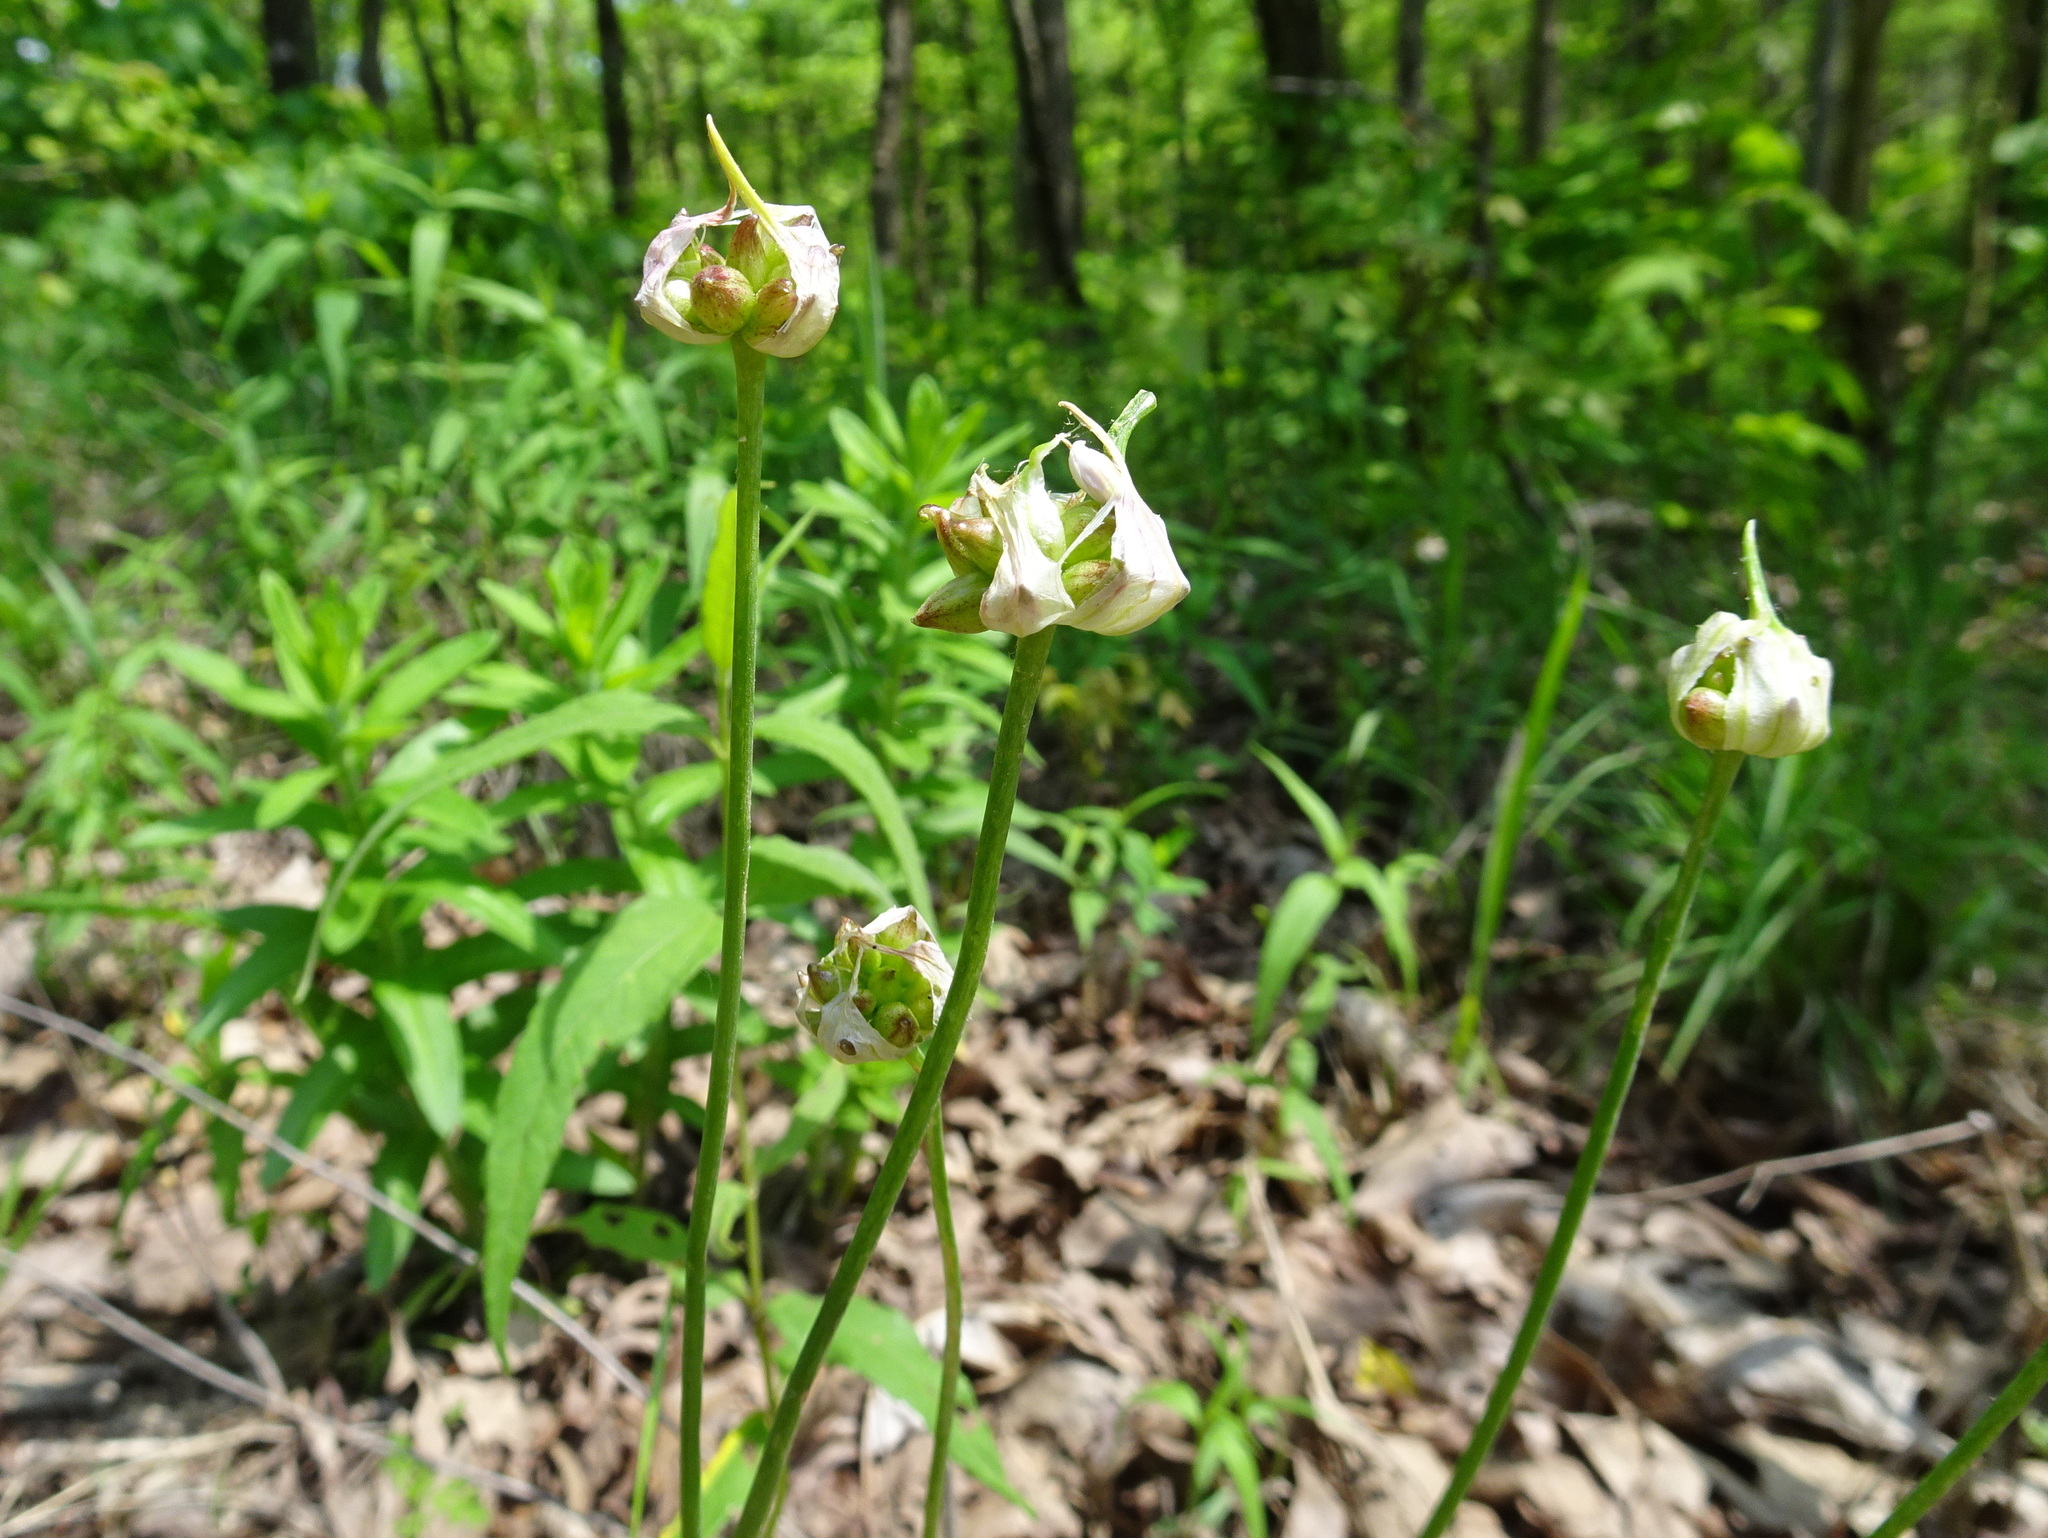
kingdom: Plantae
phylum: Tracheophyta
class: Liliopsida
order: Asparagales
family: Amaryllidaceae
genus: Allium
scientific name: Allium canadense
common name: Meadow garlic
